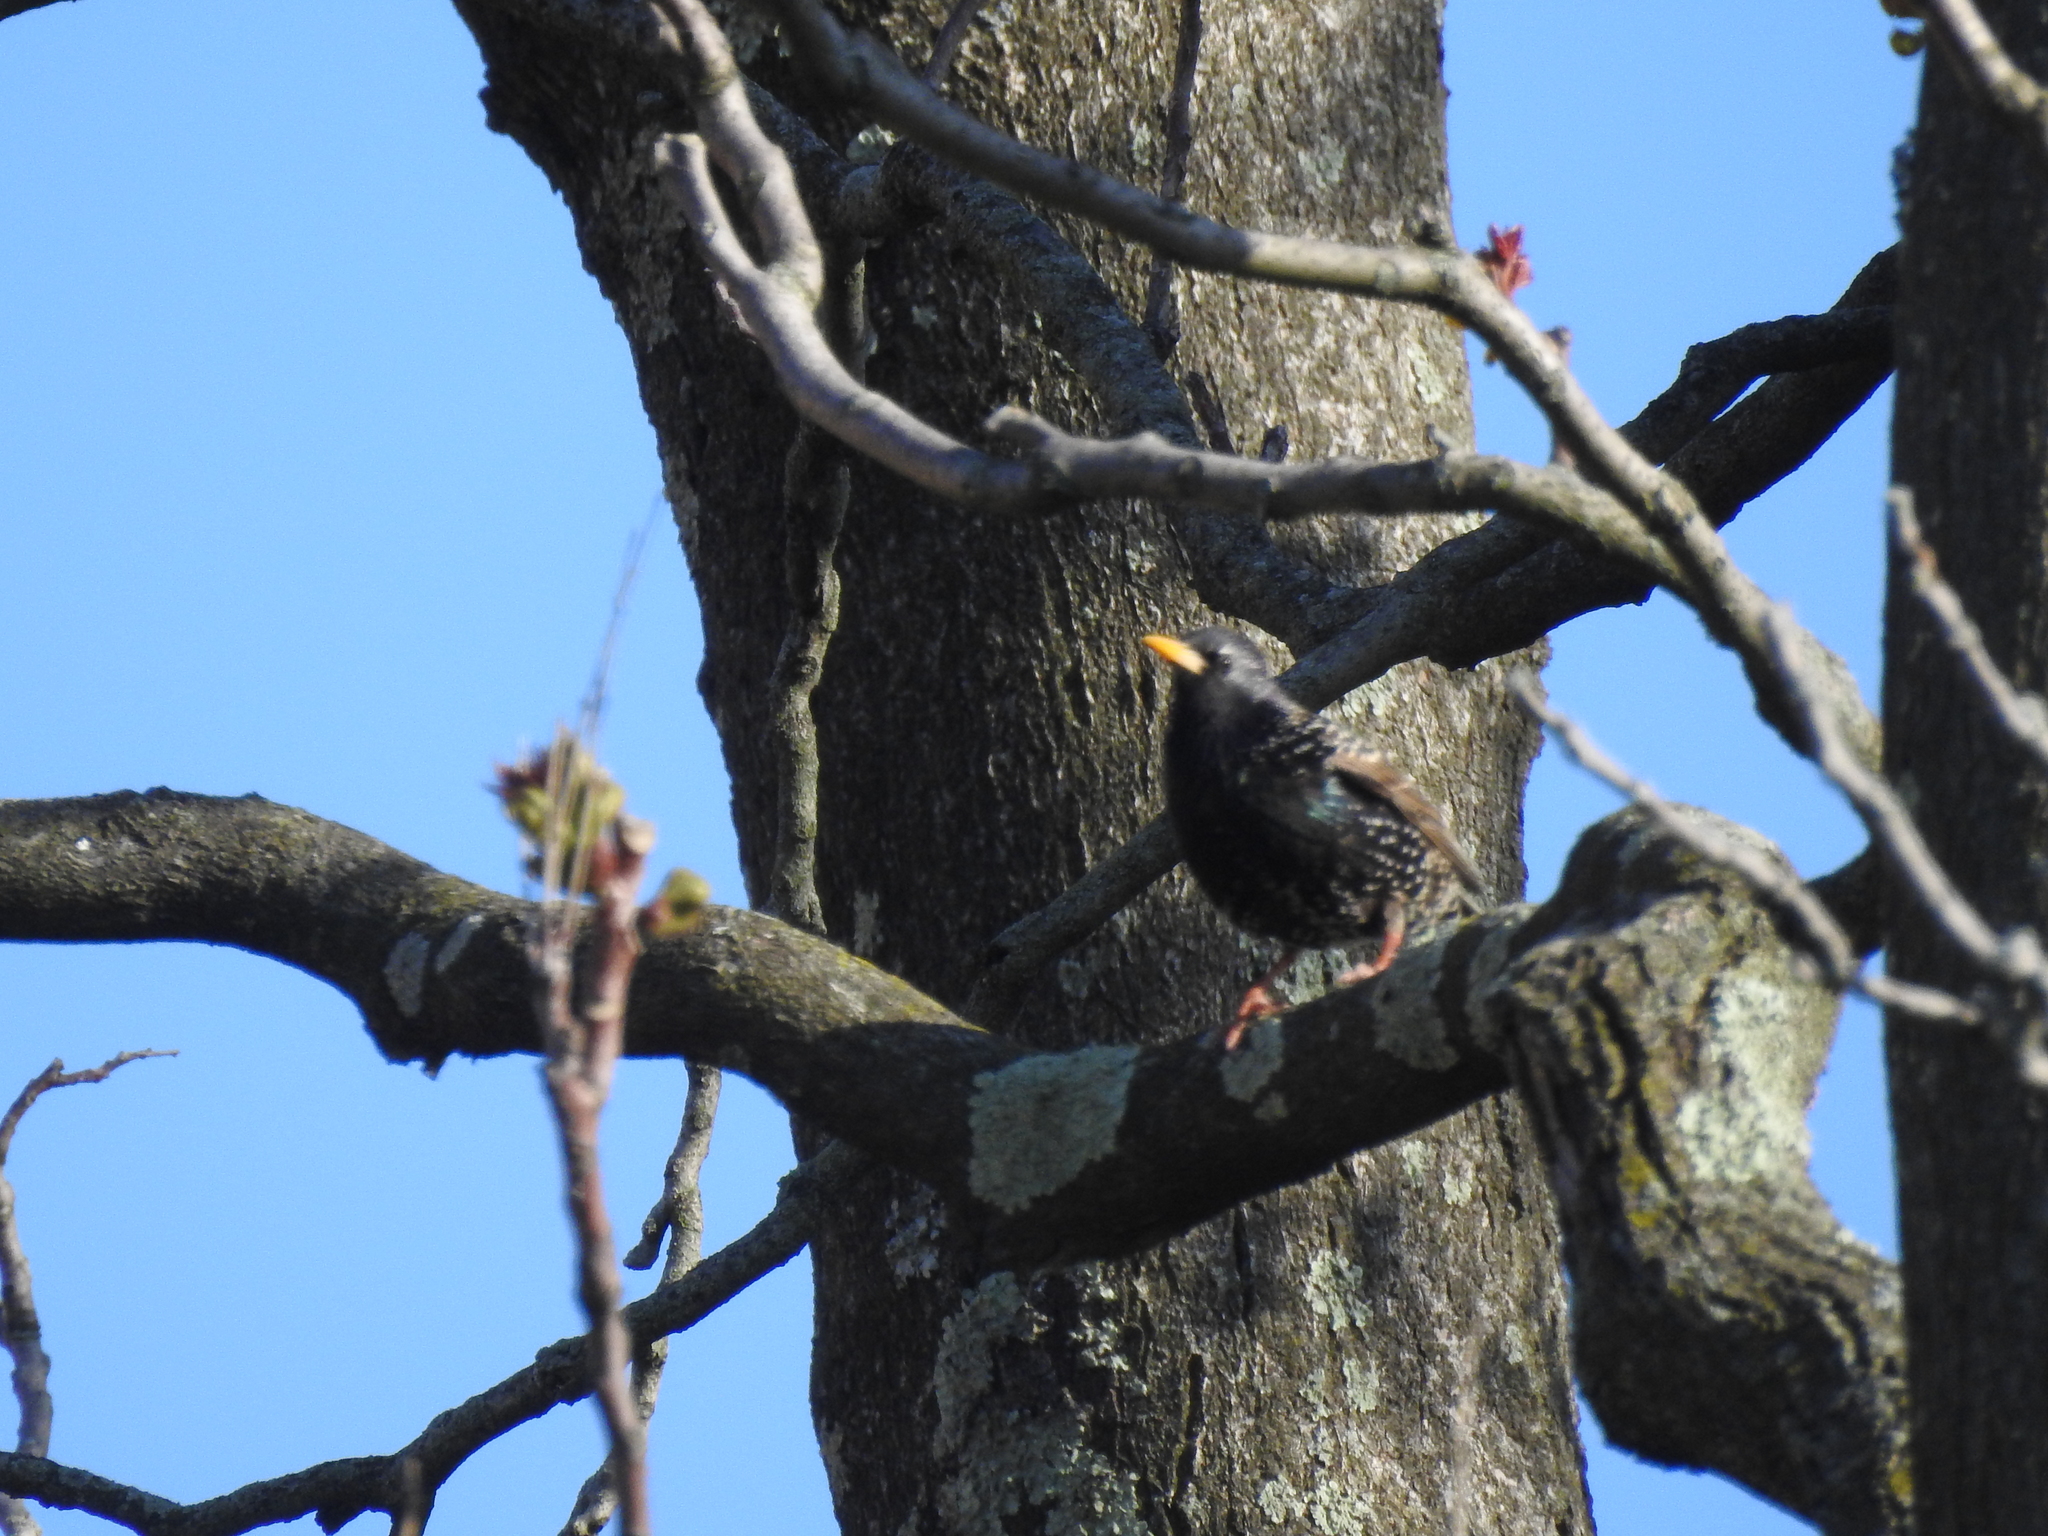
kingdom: Animalia
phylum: Chordata
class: Aves
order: Passeriformes
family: Sturnidae
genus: Sturnus
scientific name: Sturnus vulgaris
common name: Common starling
